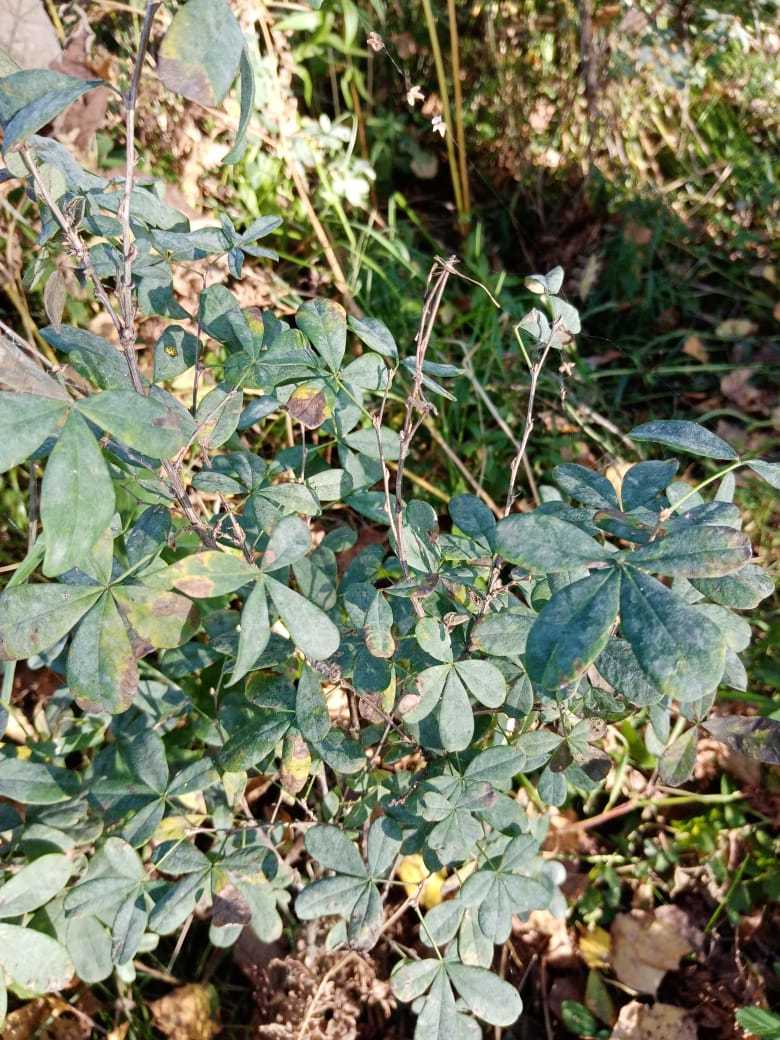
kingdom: Plantae
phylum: Tracheophyta
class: Magnoliopsida
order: Fabales
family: Fabaceae
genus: Caragana
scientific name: Caragana frutex
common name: Russian peashrub
